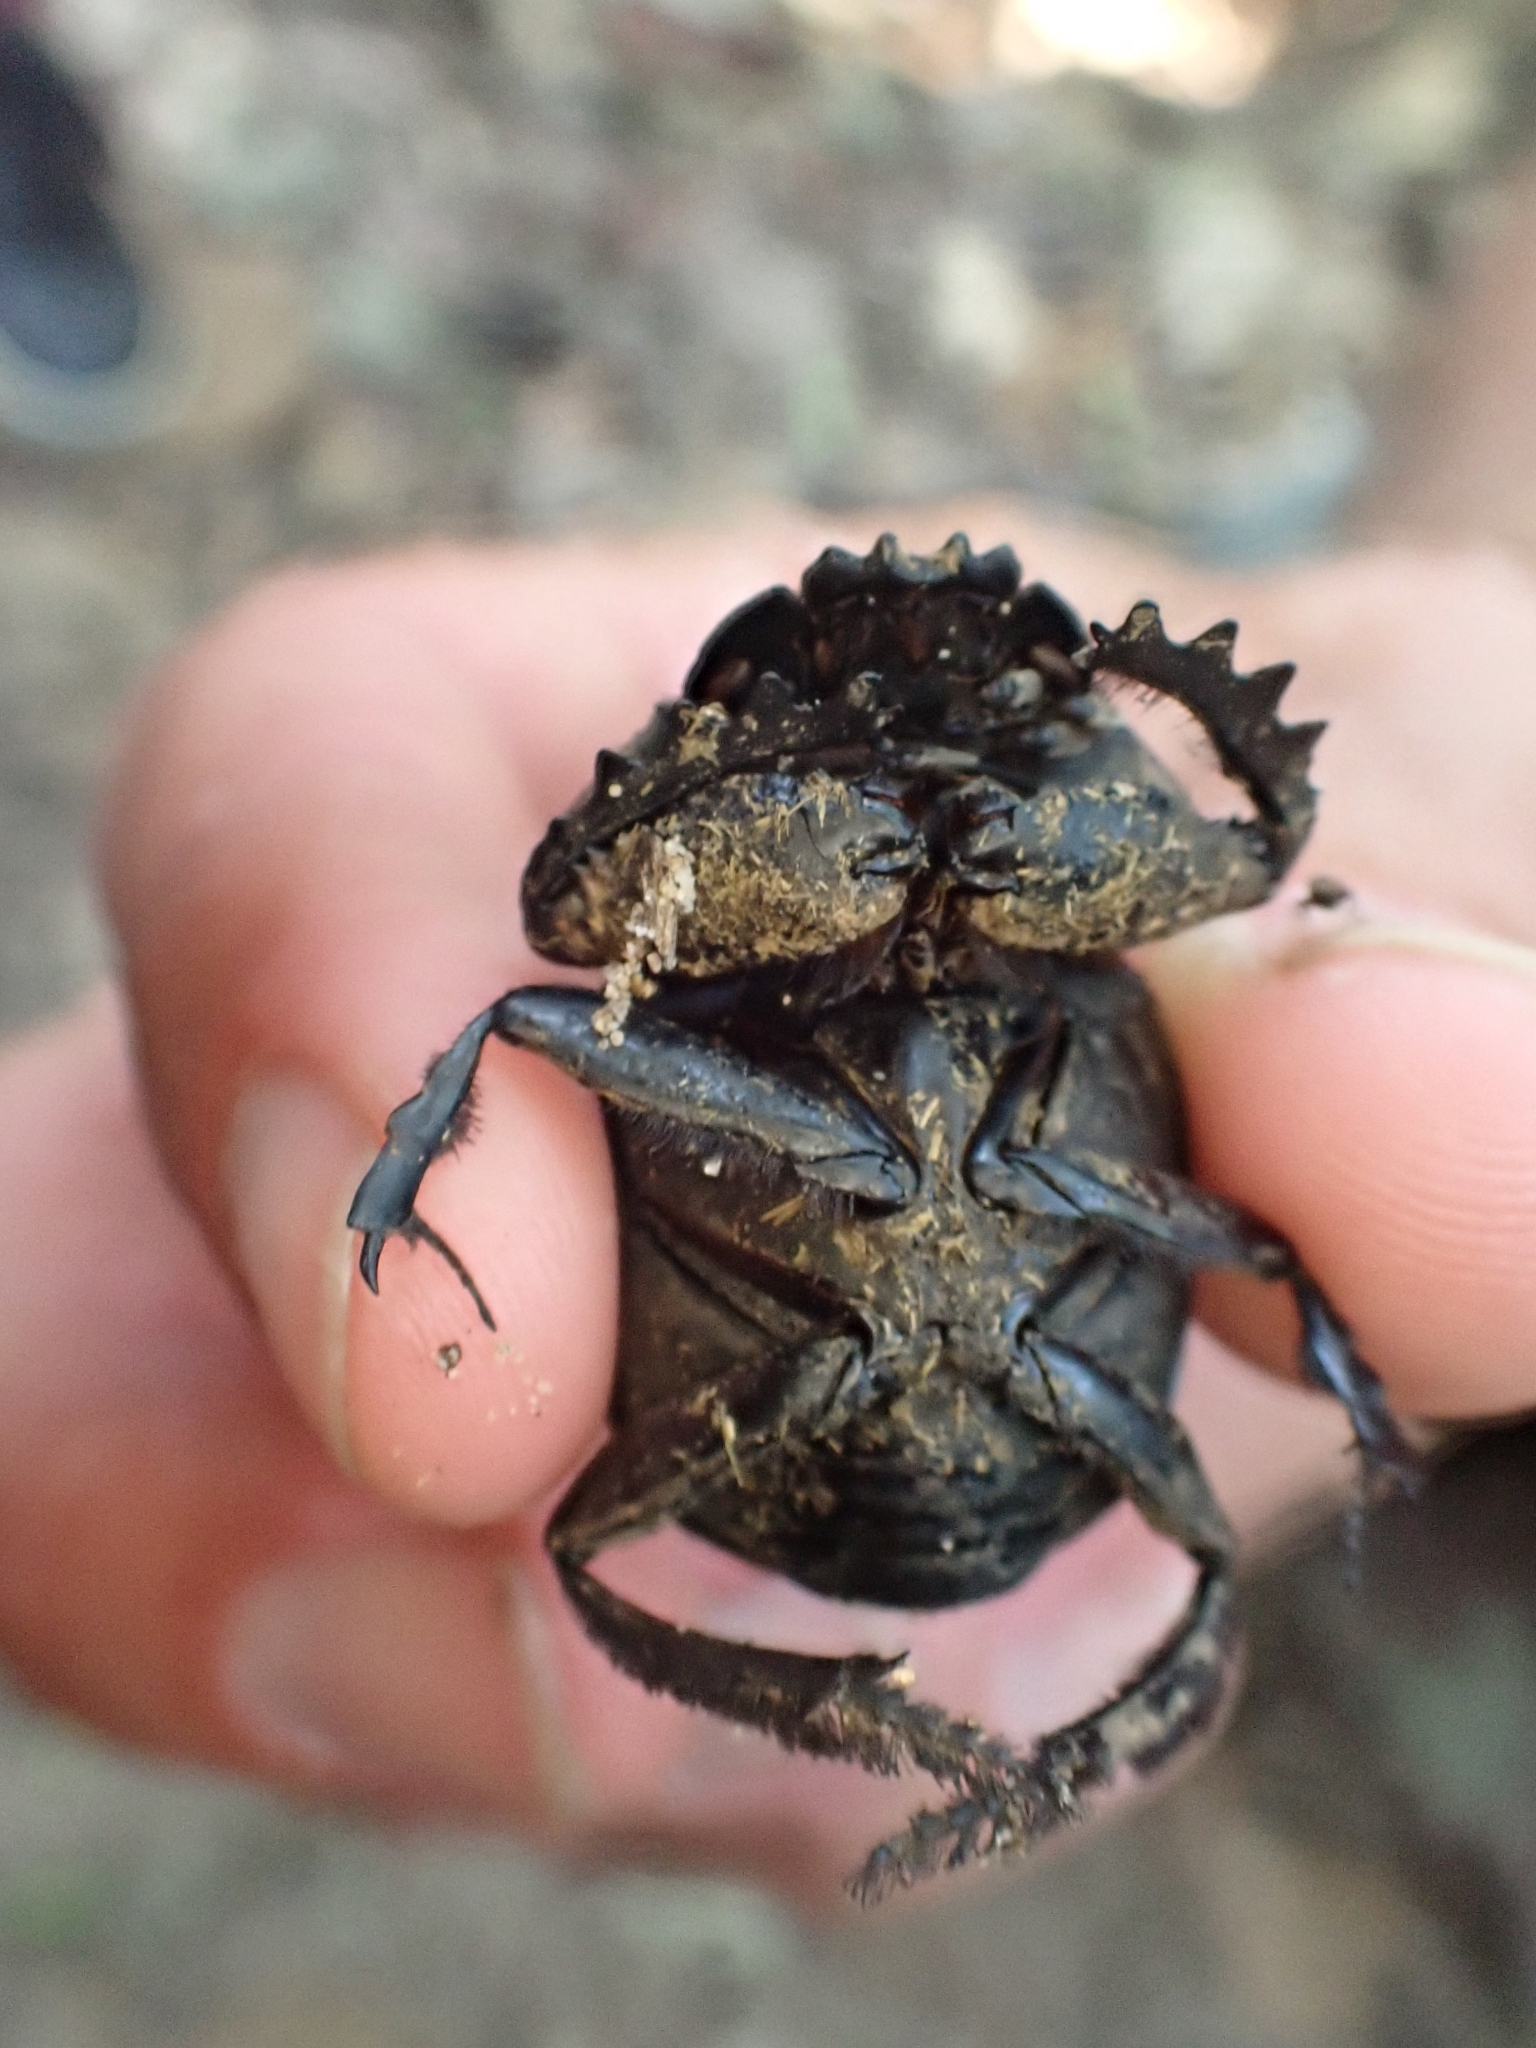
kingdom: Animalia
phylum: Arthropoda
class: Insecta
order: Coleoptera
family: Scarabaeidae
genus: Pachylomera
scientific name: Pachylomera femoralis
